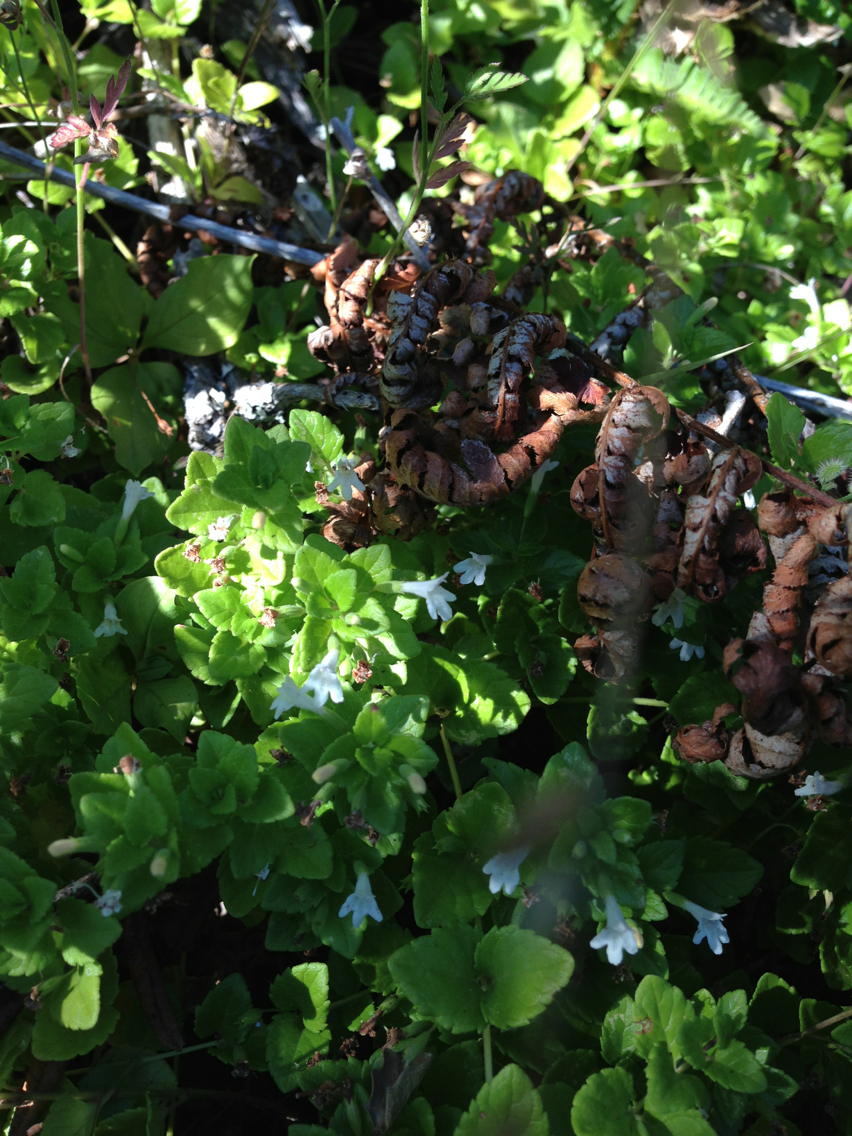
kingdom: Plantae
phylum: Tracheophyta
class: Magnoliopsida
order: Lamiales
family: Lamiaceae
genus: Micromeria
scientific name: Micromeria douglasii
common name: Yerba buena
